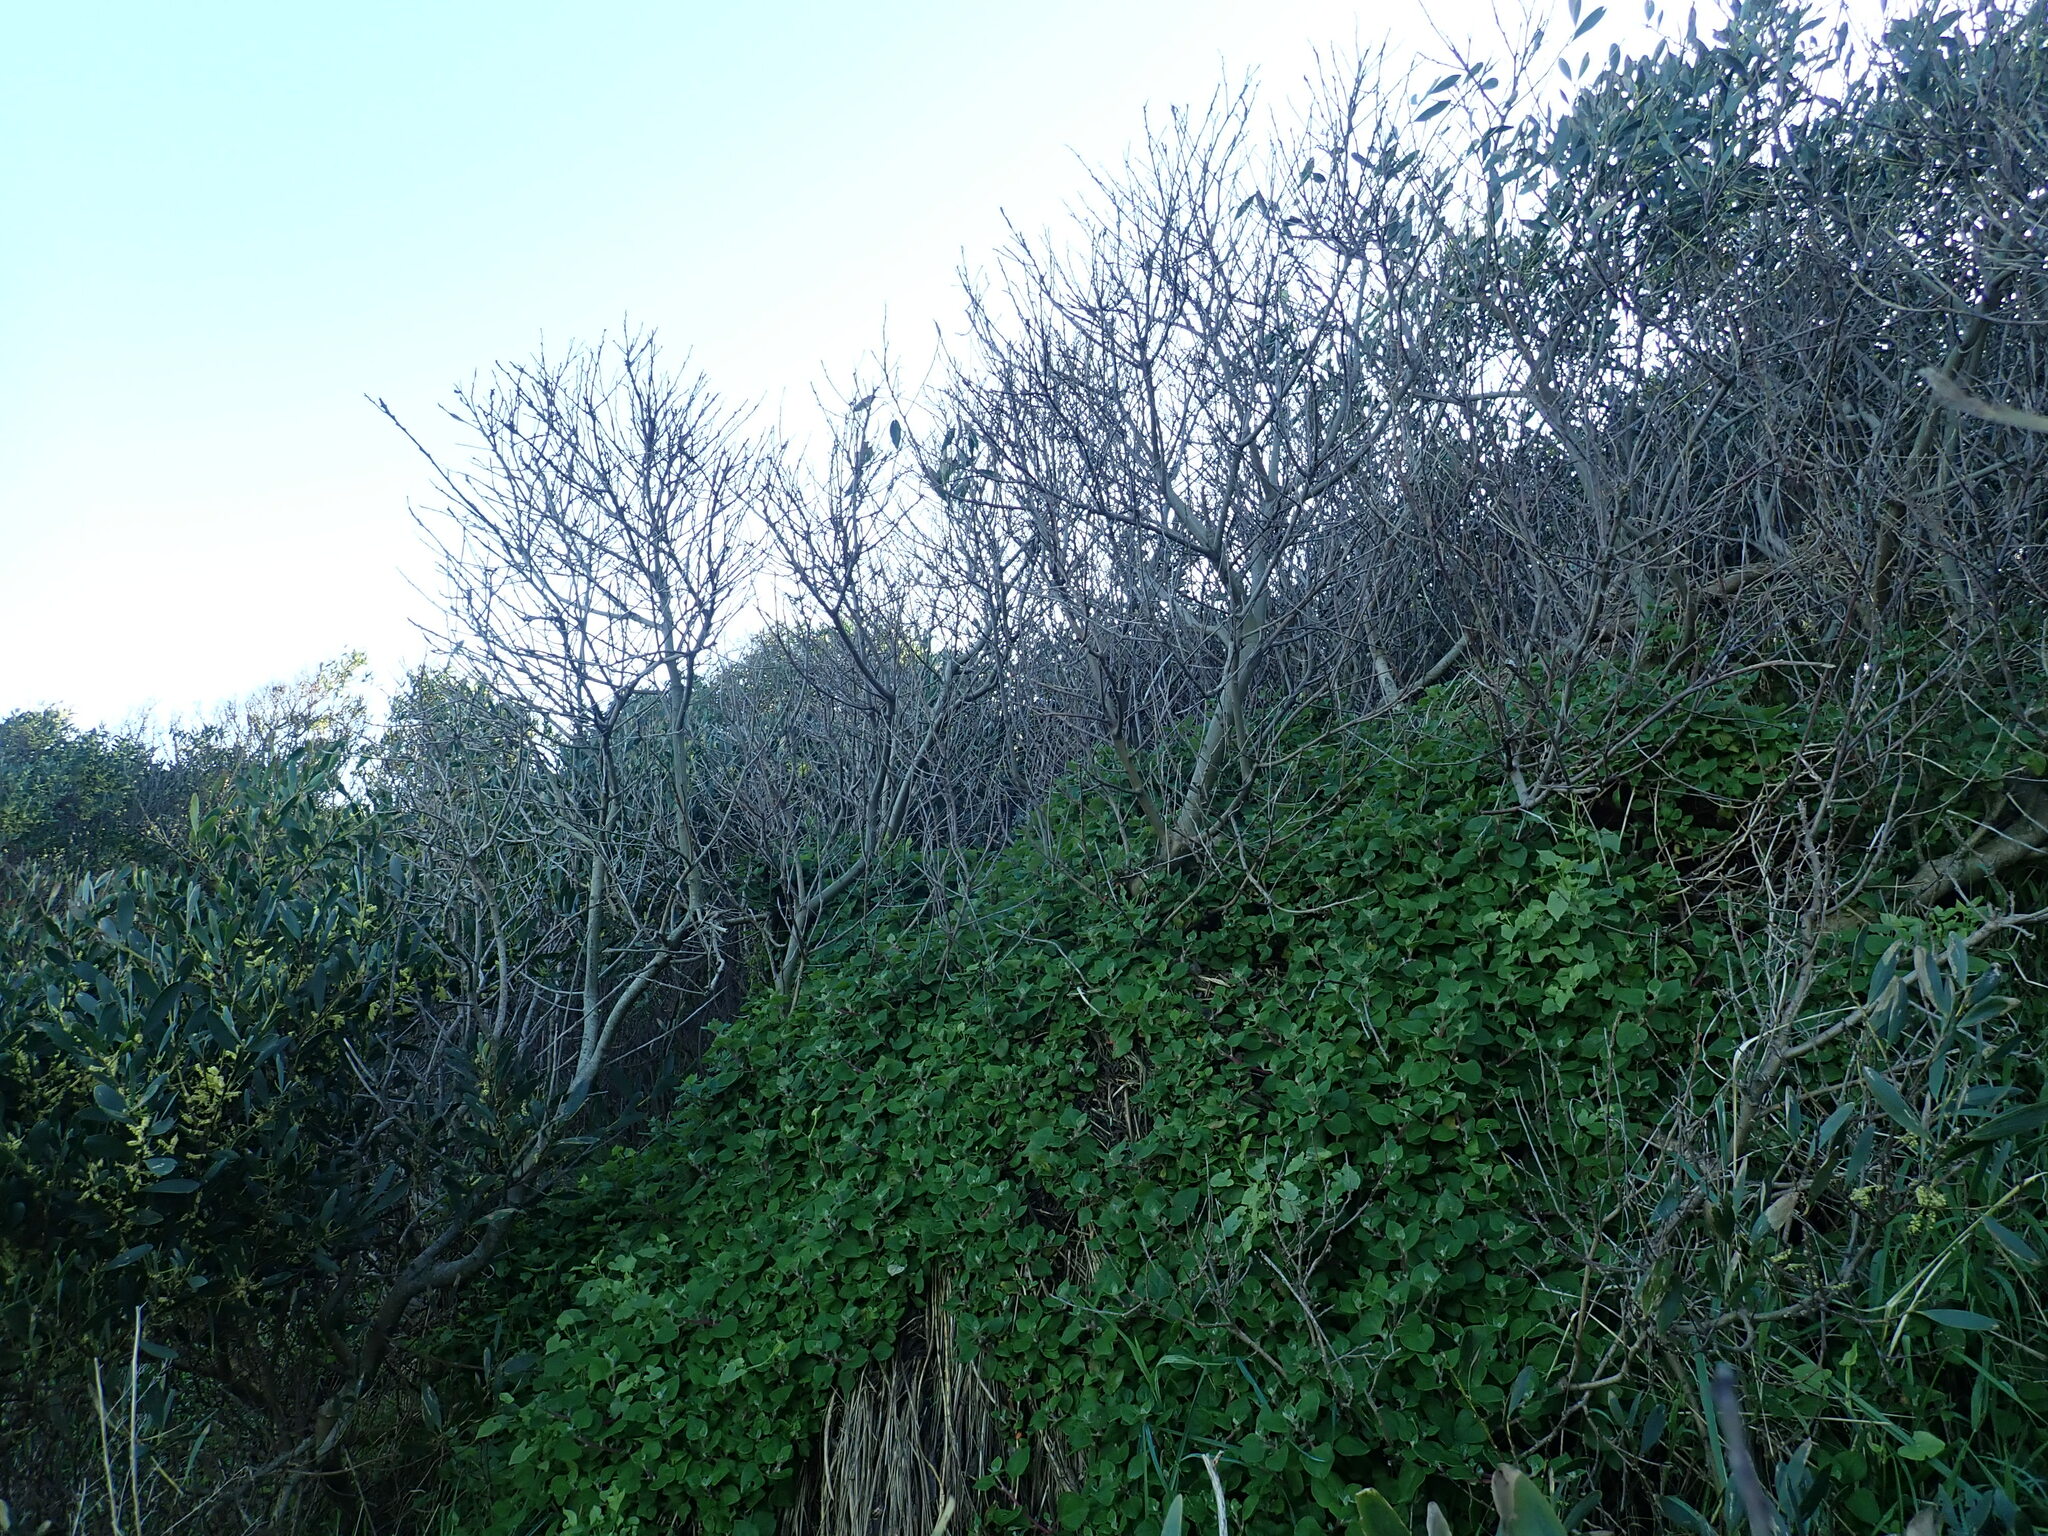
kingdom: Plantae
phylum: Tracheophyta
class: Magnoliopsida
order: Caryophyllales
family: Aizoaceae
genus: Tetragonia
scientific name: Tetragonia implexicoma
